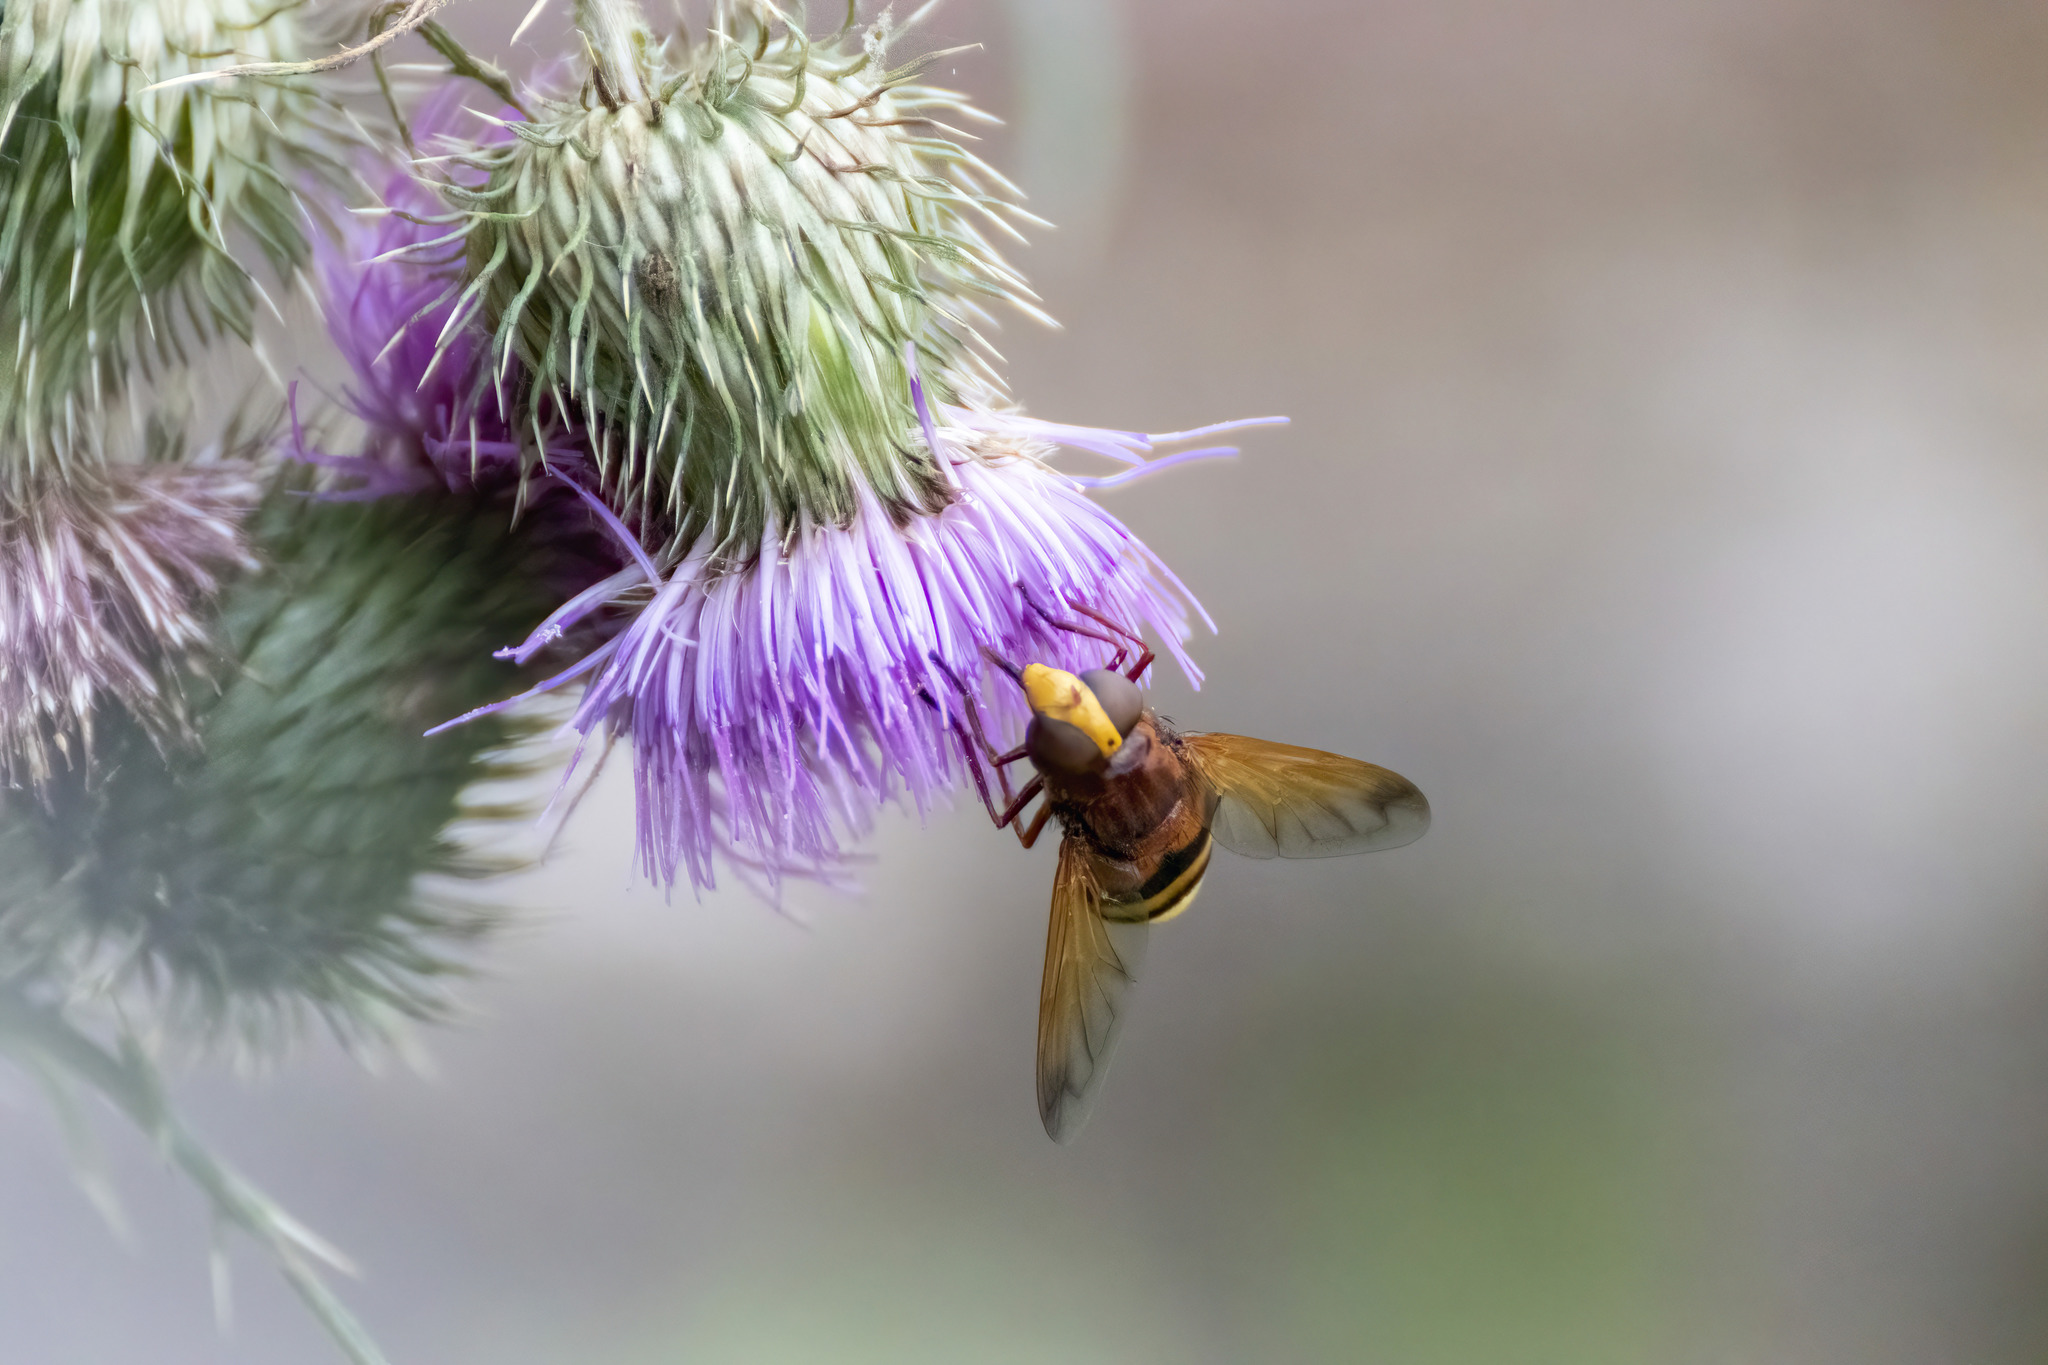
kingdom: Animalia
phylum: Arthropoda
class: Insecta
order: Diptera
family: Syrphidae
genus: Volucella
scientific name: Volucella zonaria
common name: Hornet hoverfly
